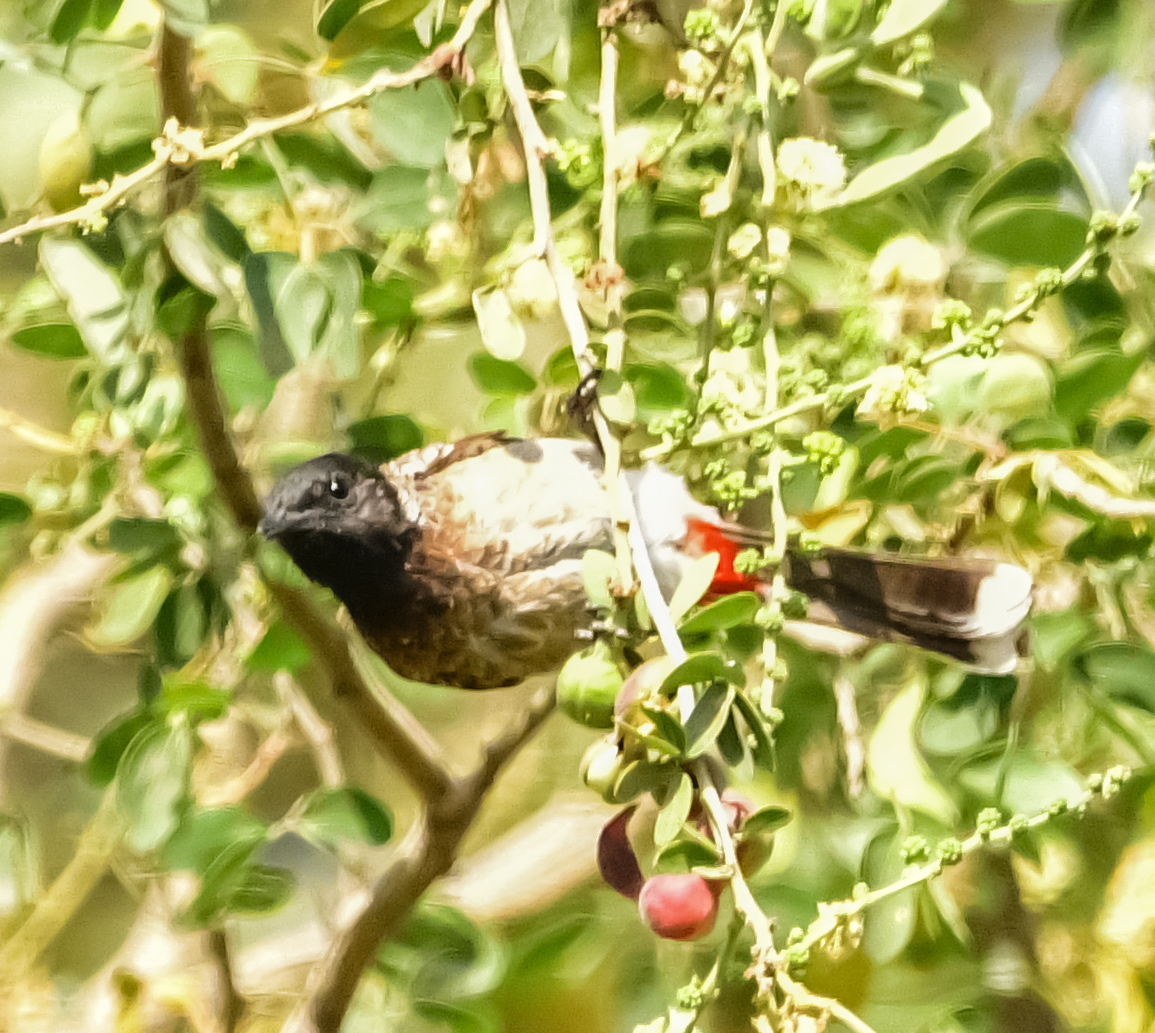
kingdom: Animalia
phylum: Chordata
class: Aves
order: Passeriformes
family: Pycnonotidae
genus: Pycnonotus
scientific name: Pycnonotus cafer
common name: Red-vented bulbul
